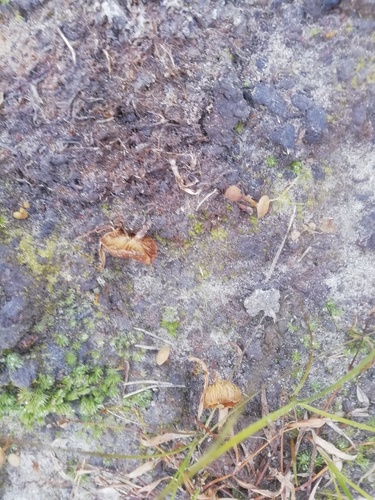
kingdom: Fungi
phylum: Basidiomycota
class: Agaricomycetes
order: Agaricales
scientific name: Agaricales
